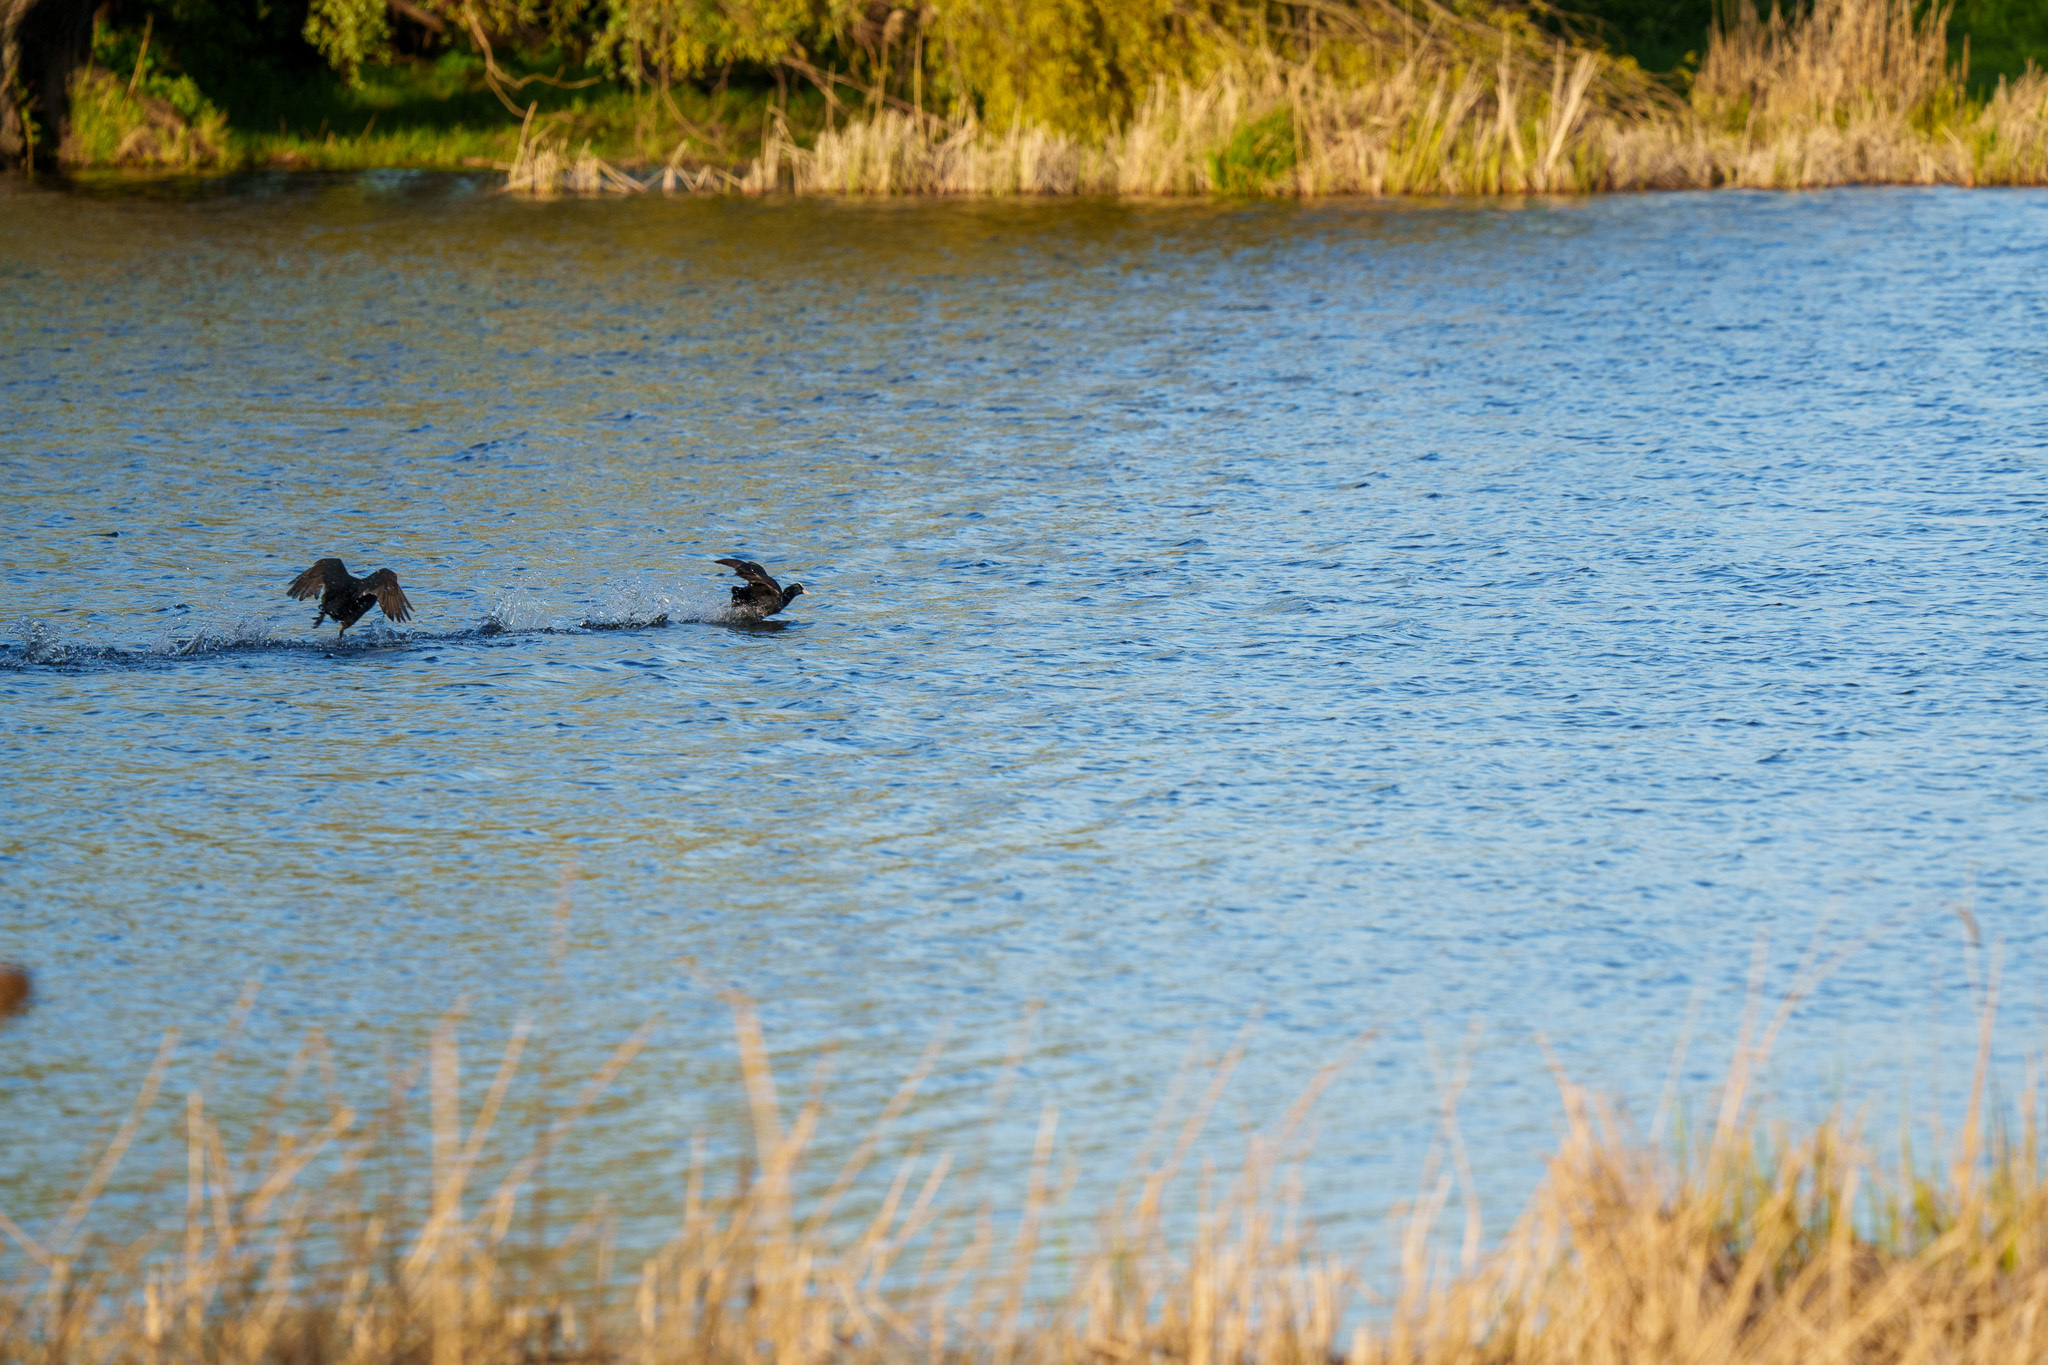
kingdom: Animalia
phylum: Chordata
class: Aves
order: Gruiformes
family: Rallidae
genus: Fulica
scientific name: Fulica atra
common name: Eurasian coot
